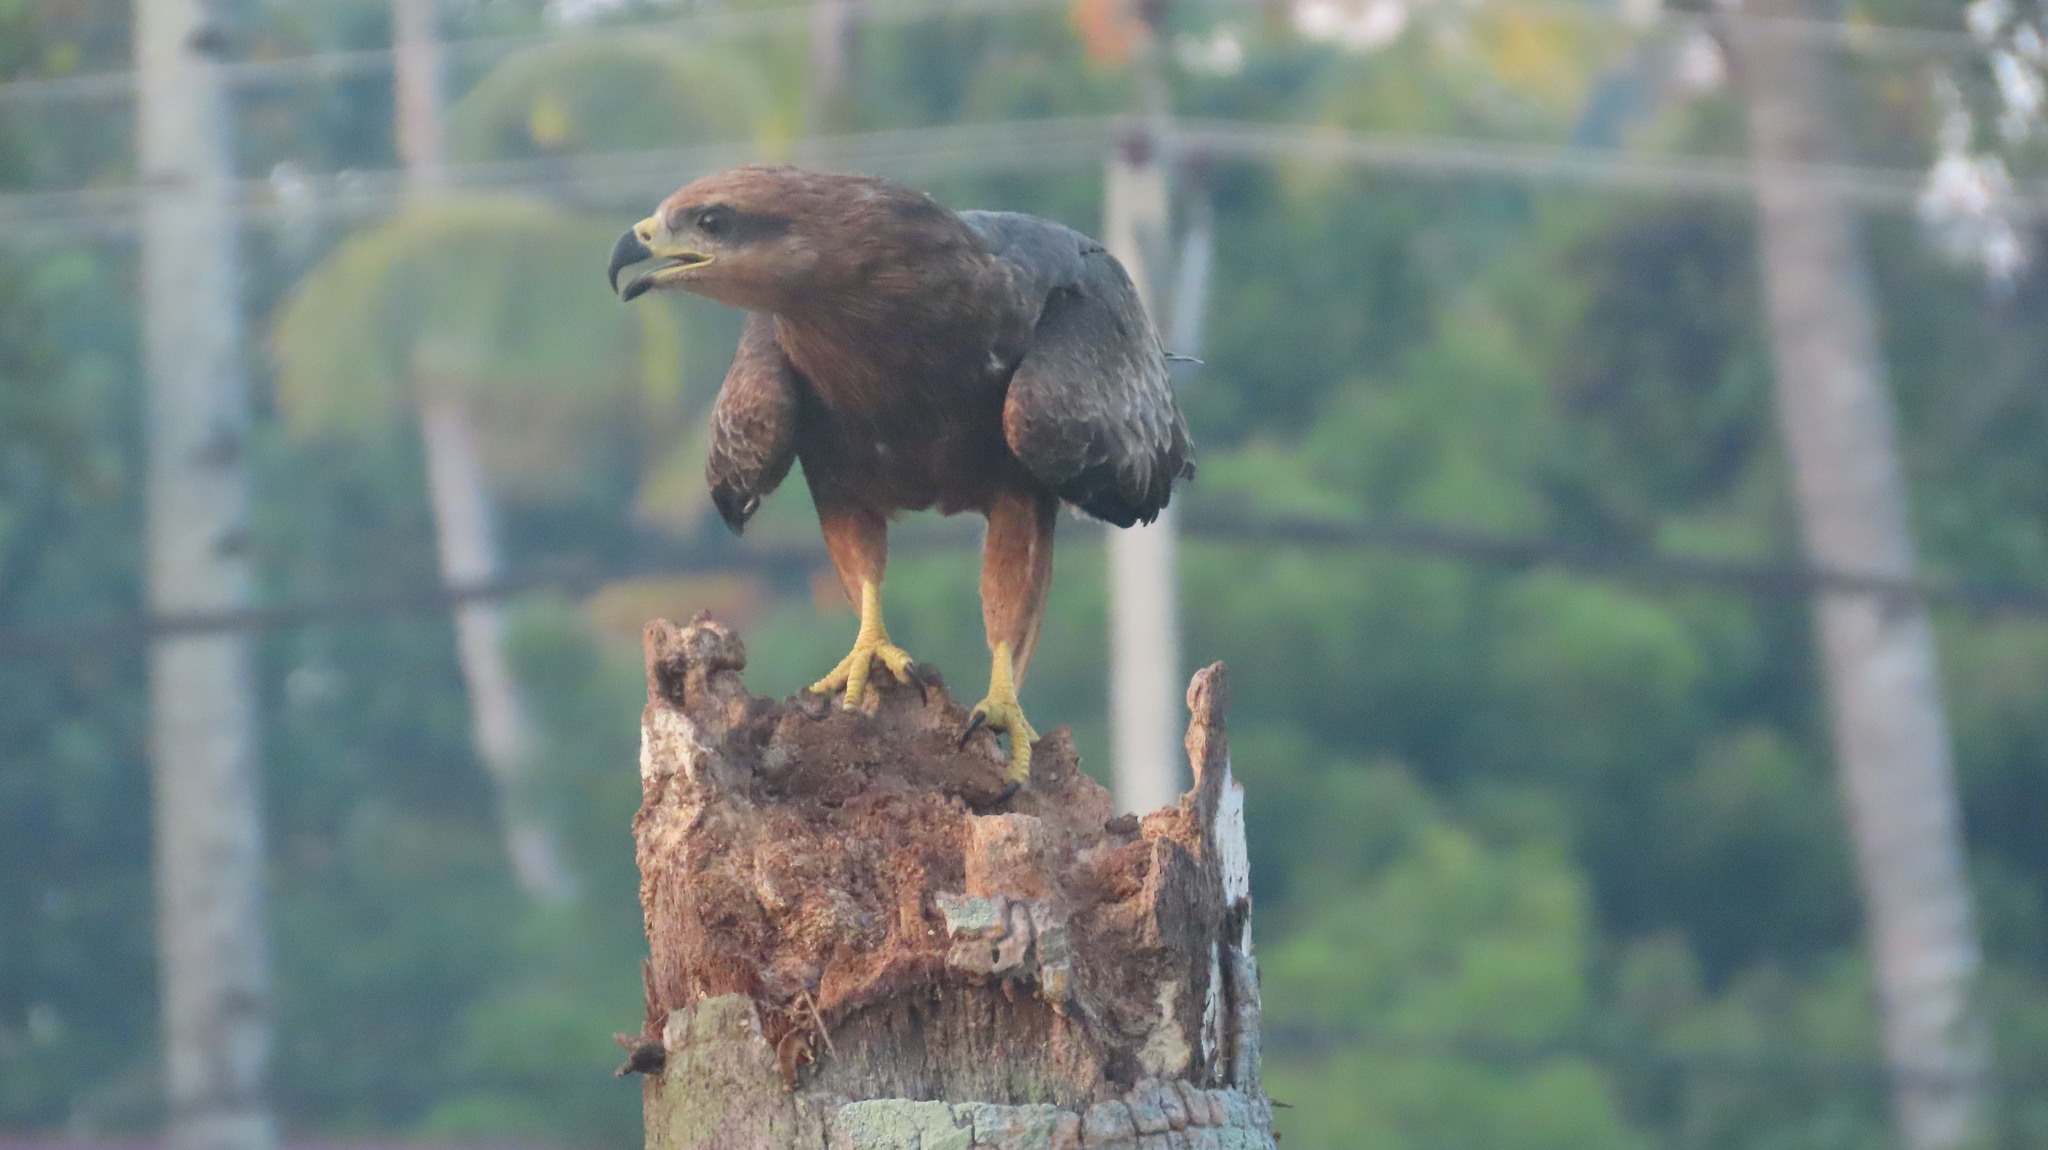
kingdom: Animalia
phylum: Chordata
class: Aves
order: Accipitriformes
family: Accipitridae
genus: Milvus
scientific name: Milvus migrans
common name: Black kite
